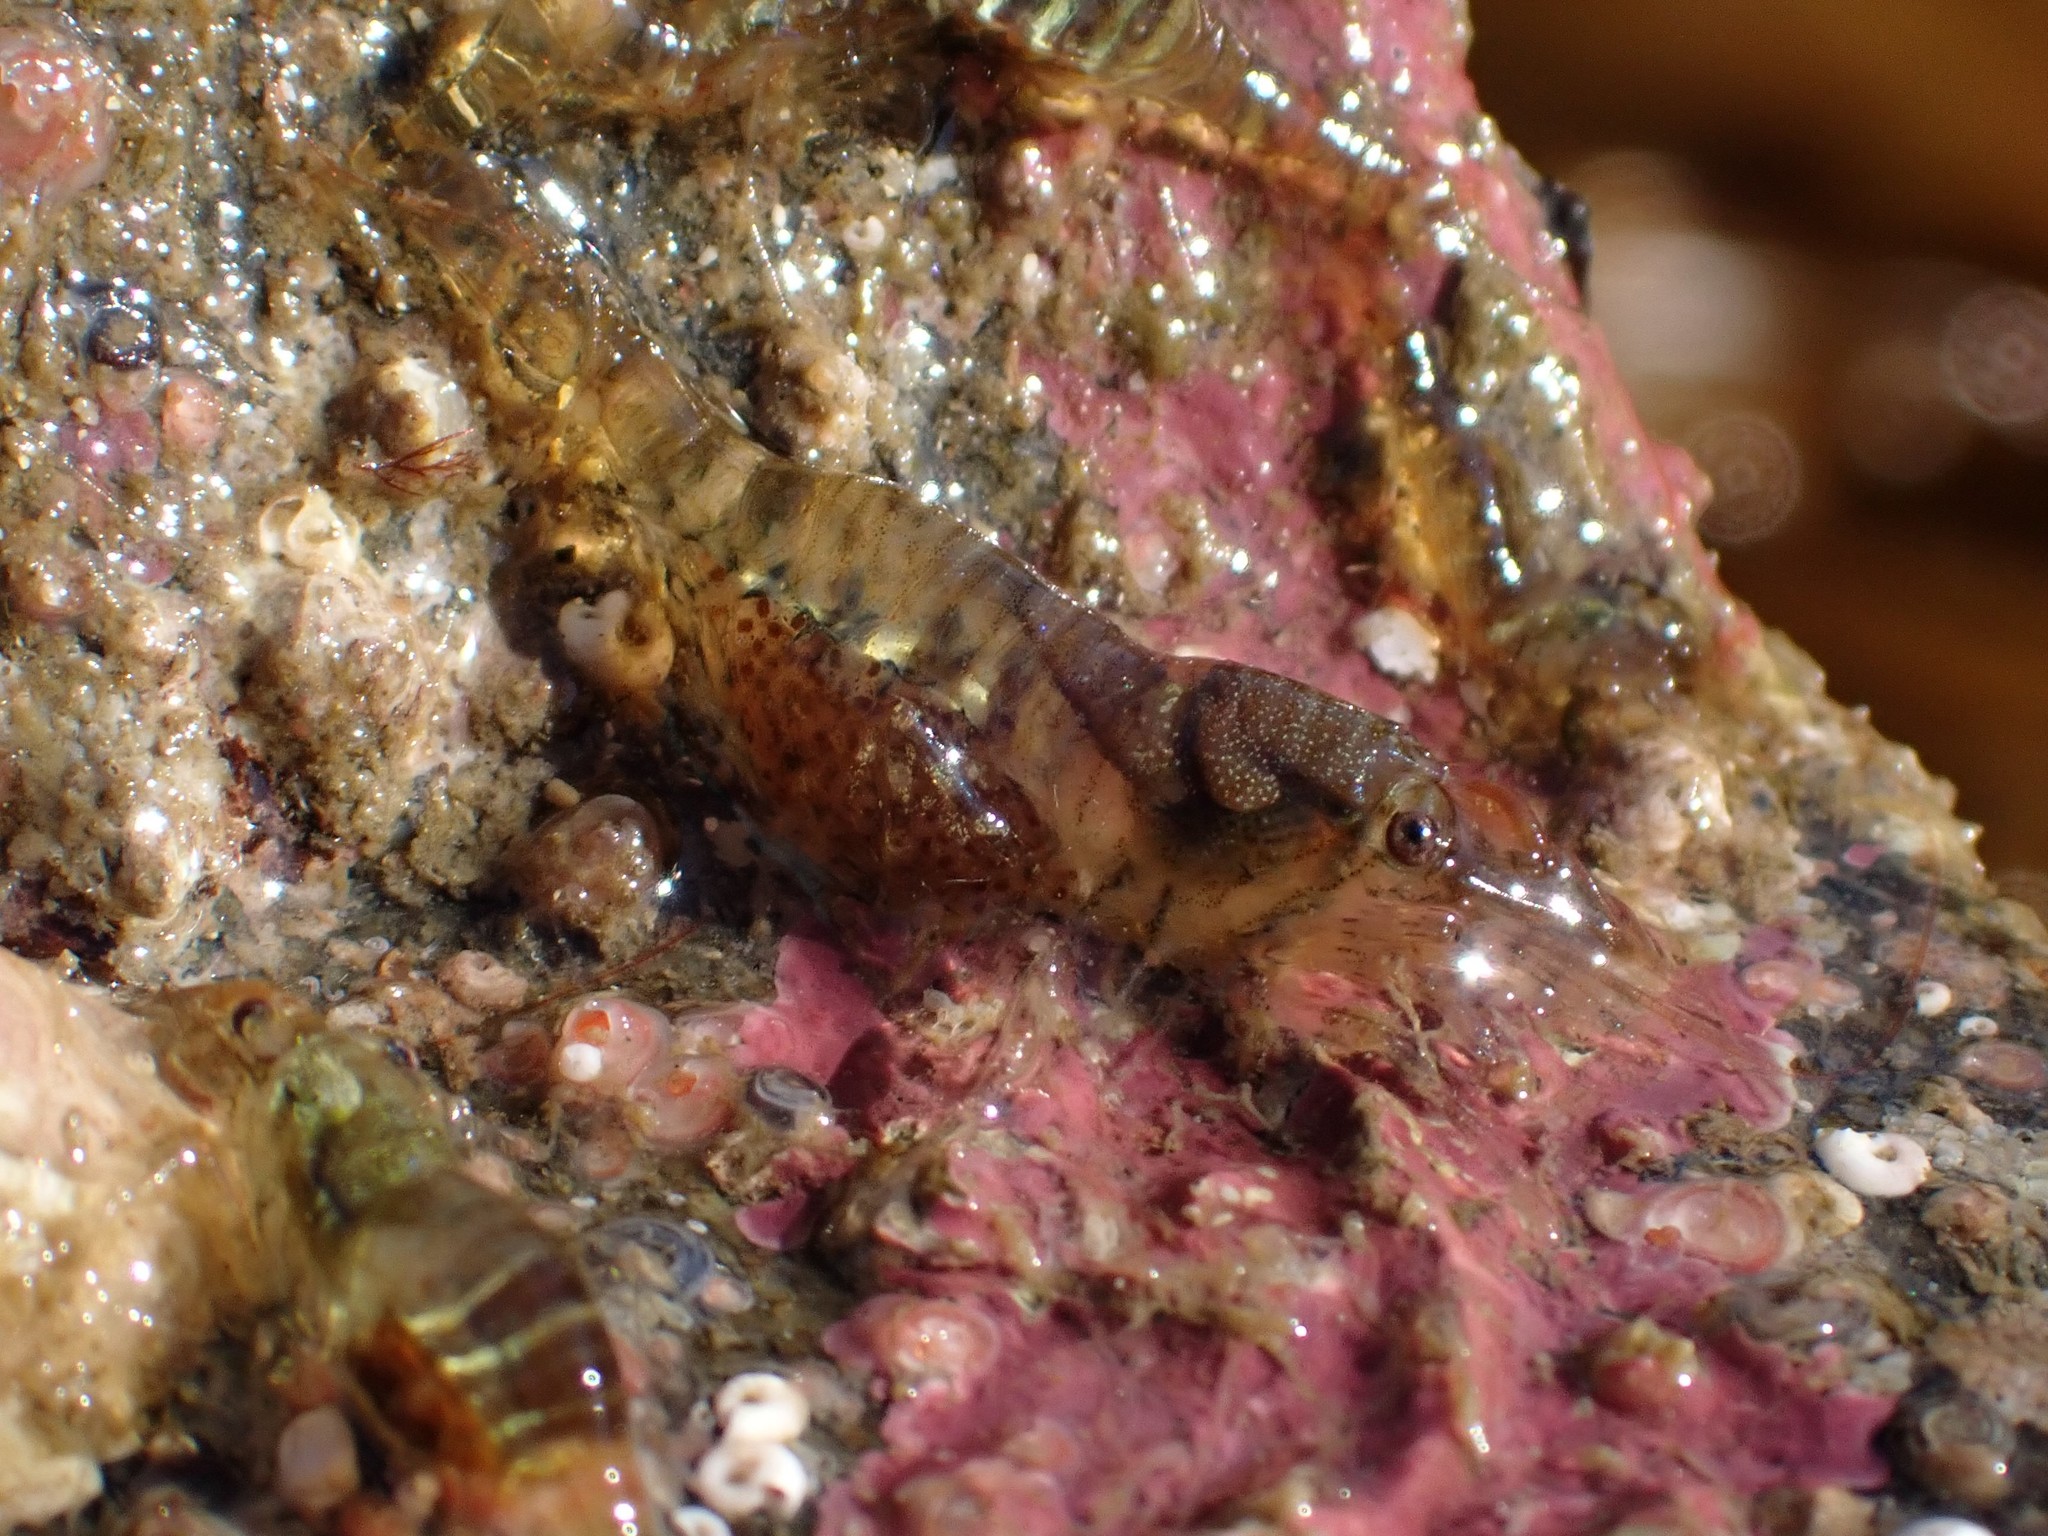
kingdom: Animalia
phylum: Arthropoda
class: Malacostraca
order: Decapoda
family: Thoridae
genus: Heptacarpus
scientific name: Heptacarpus pugettensis
